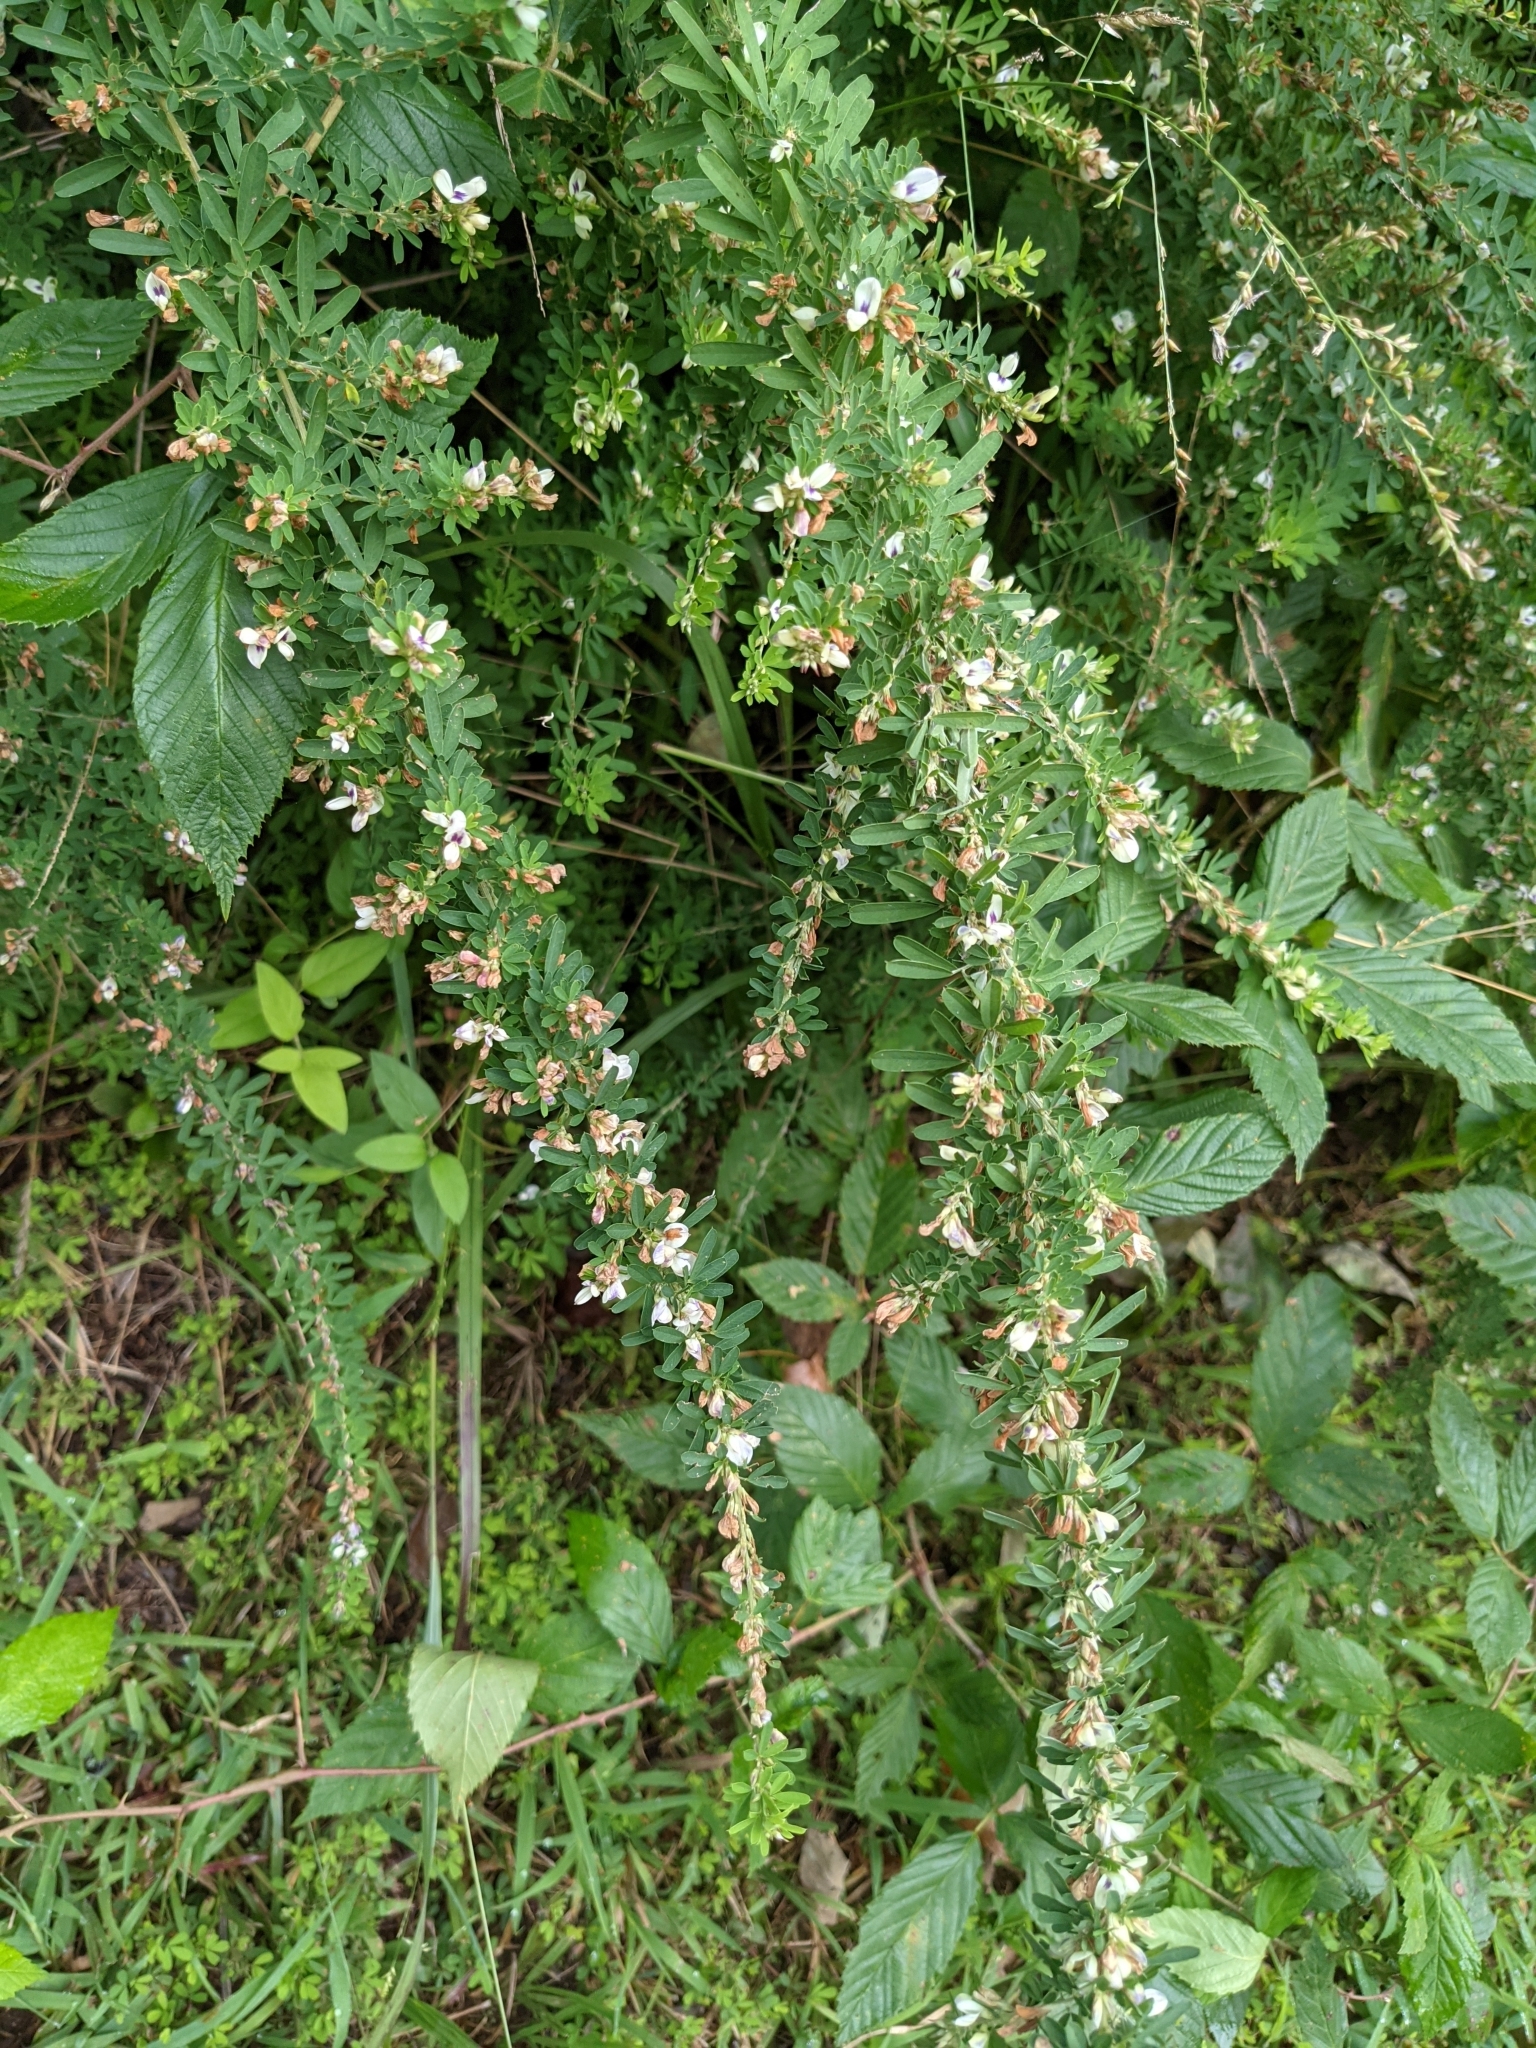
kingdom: Plantae
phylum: Tracheophyta
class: Magnoliopsida
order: Fabales
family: Fabaceae
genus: Lespedeza
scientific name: Lespedeza cuneata
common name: Chinese bush-clover
